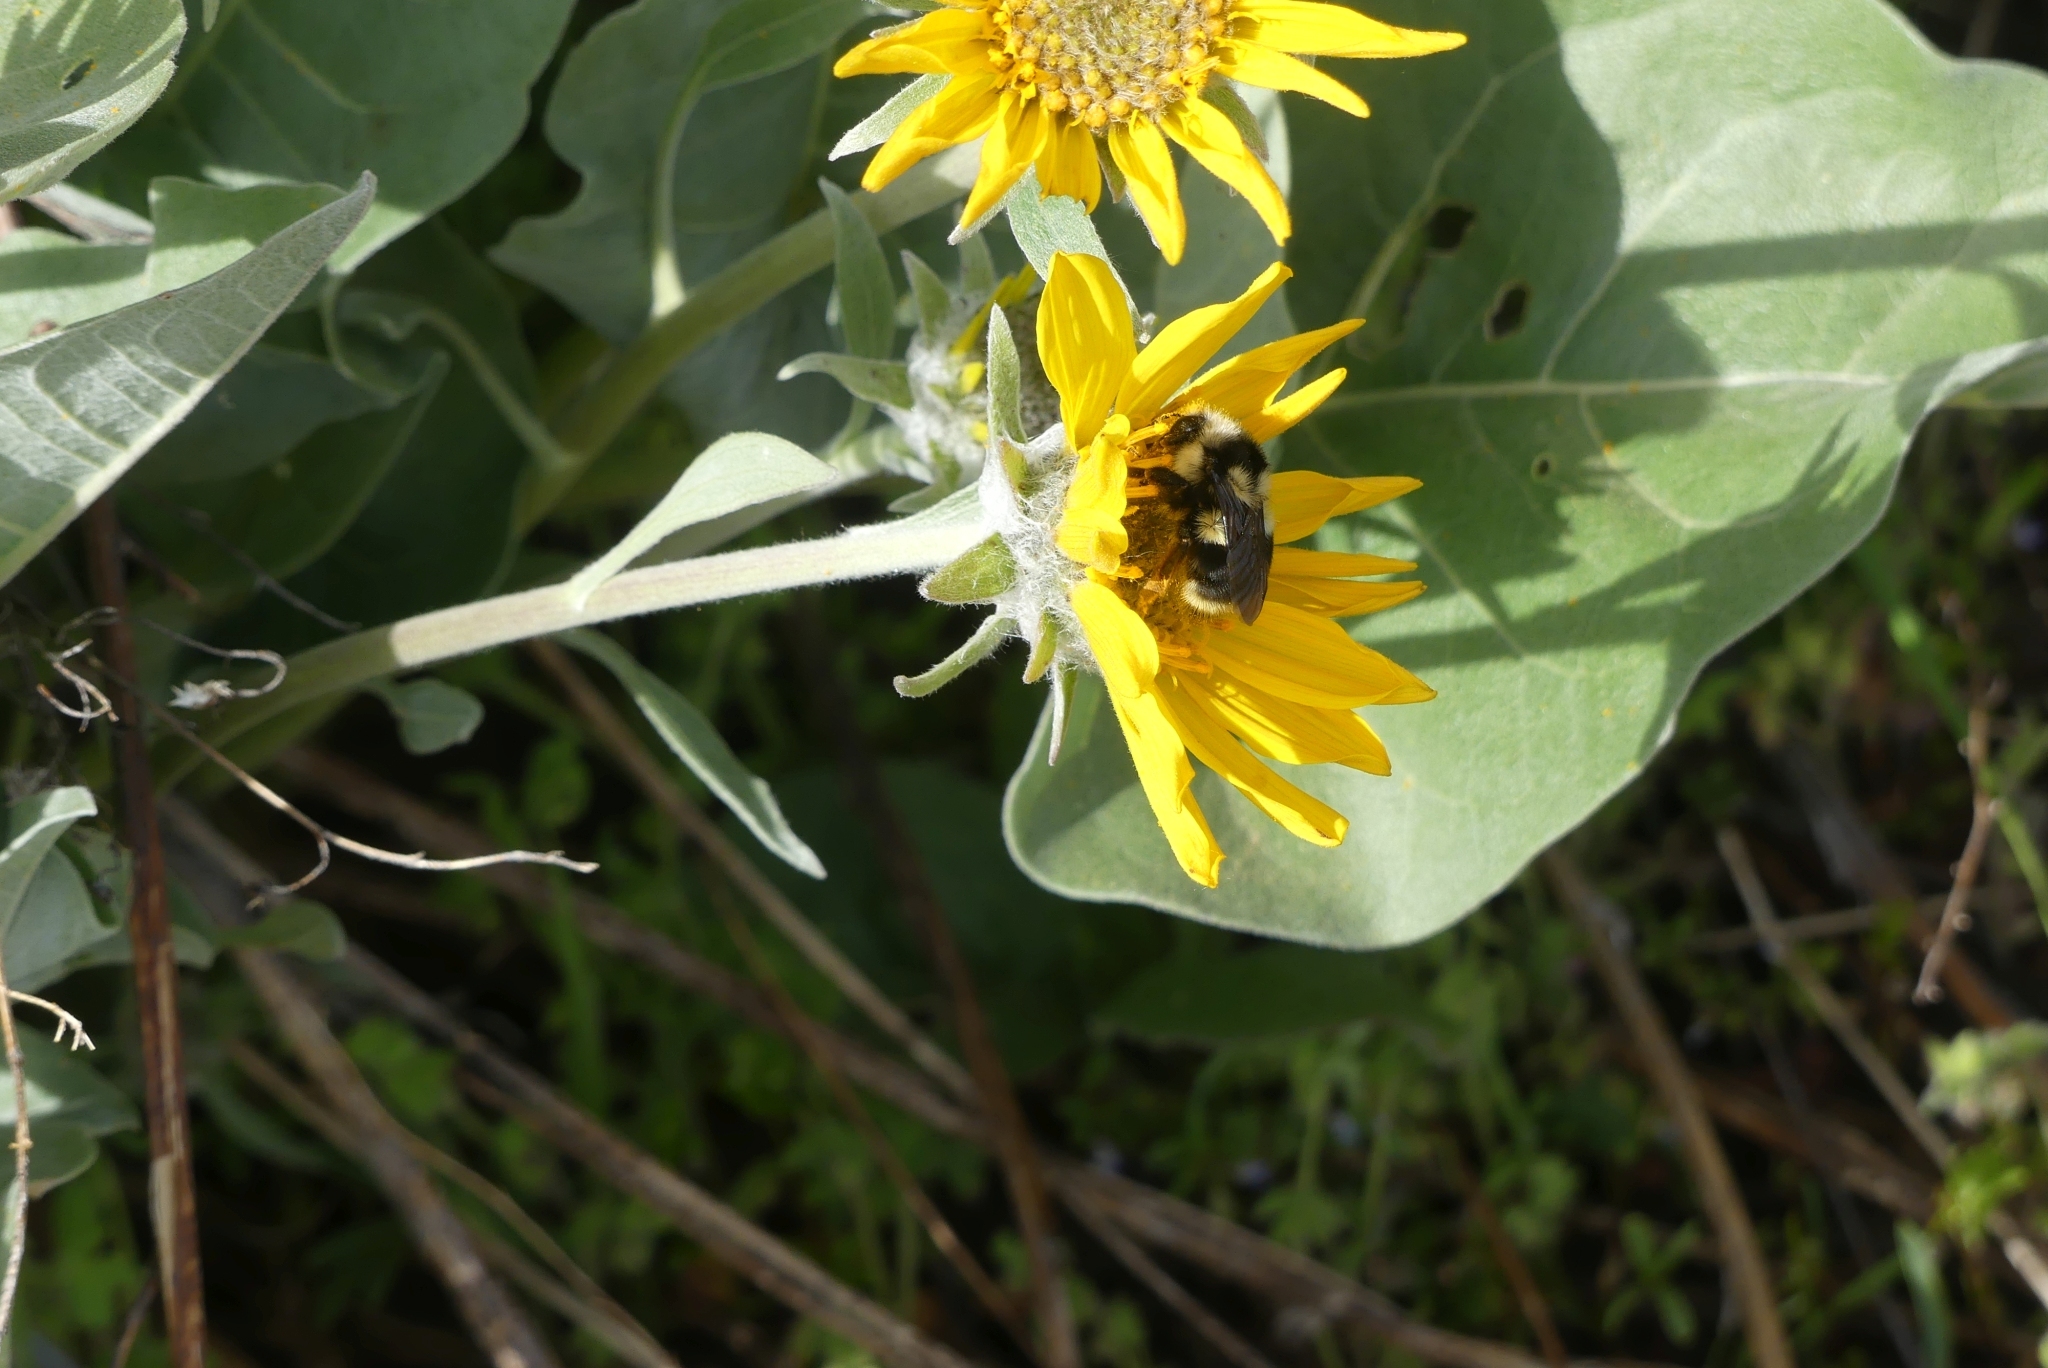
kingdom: Animalia
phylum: Arthropoda
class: Insecta
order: Hymenoptera
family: Apidae
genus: Bombus
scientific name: Bombus vancouverensis
